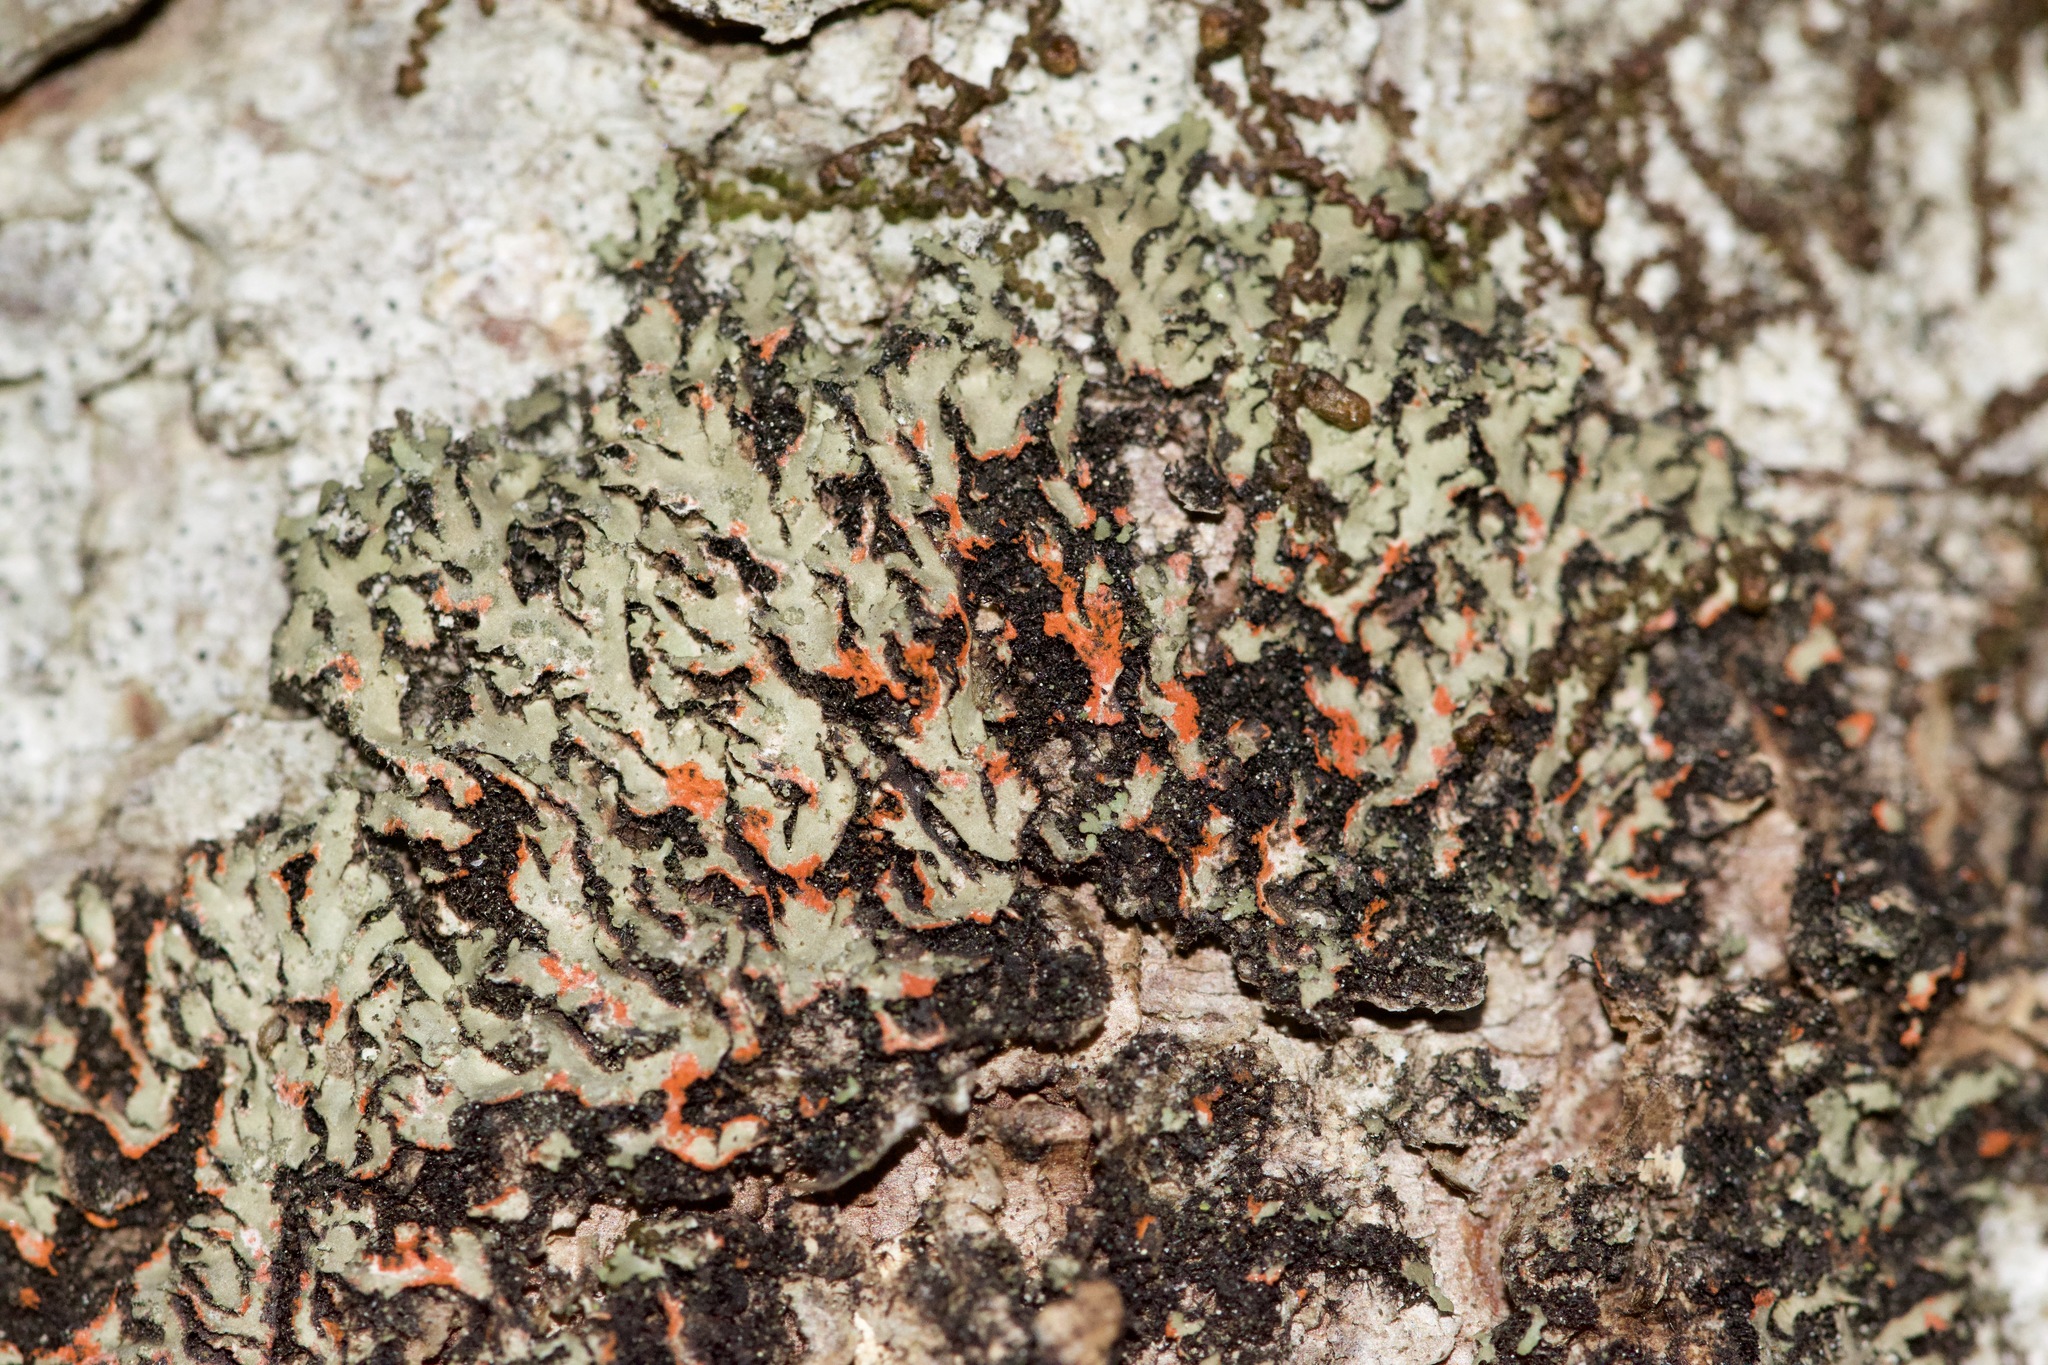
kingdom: Fungi
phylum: Ascomycota
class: Lecanoromycetes
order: Caliciales
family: Physciaceae
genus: Phaeophyscia
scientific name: Phaeophyscia rubropulchra
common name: Orange-cored shadow lichen
